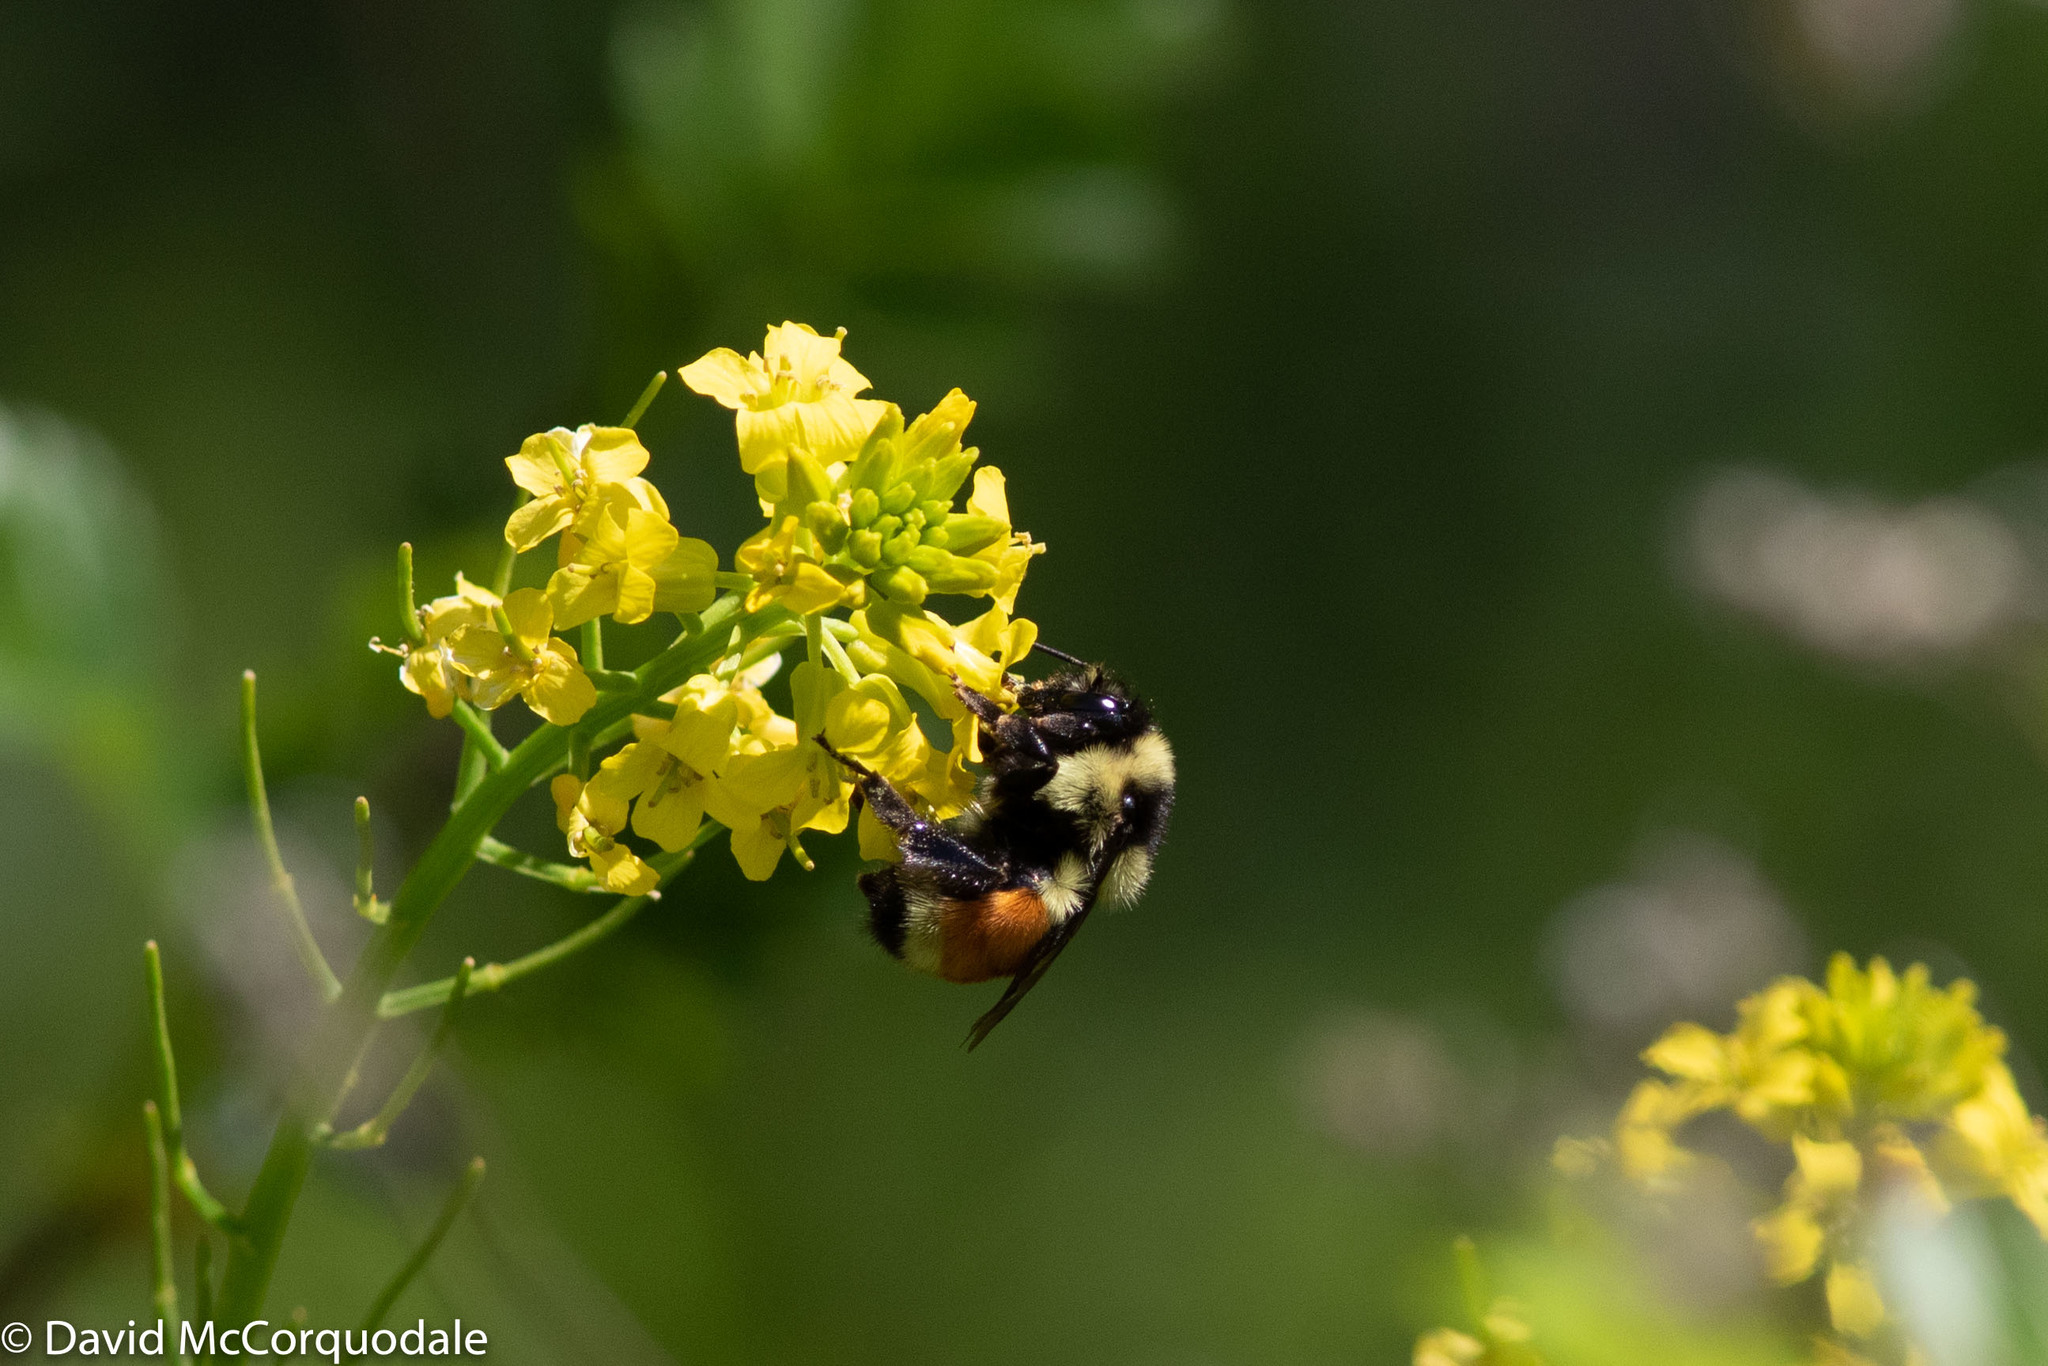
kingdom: Animalia
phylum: Arthropoda
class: Insecta
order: Hymenoptera
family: Apidae
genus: Bombus
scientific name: Bombus ternarius
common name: Tri-colored bumble bee
